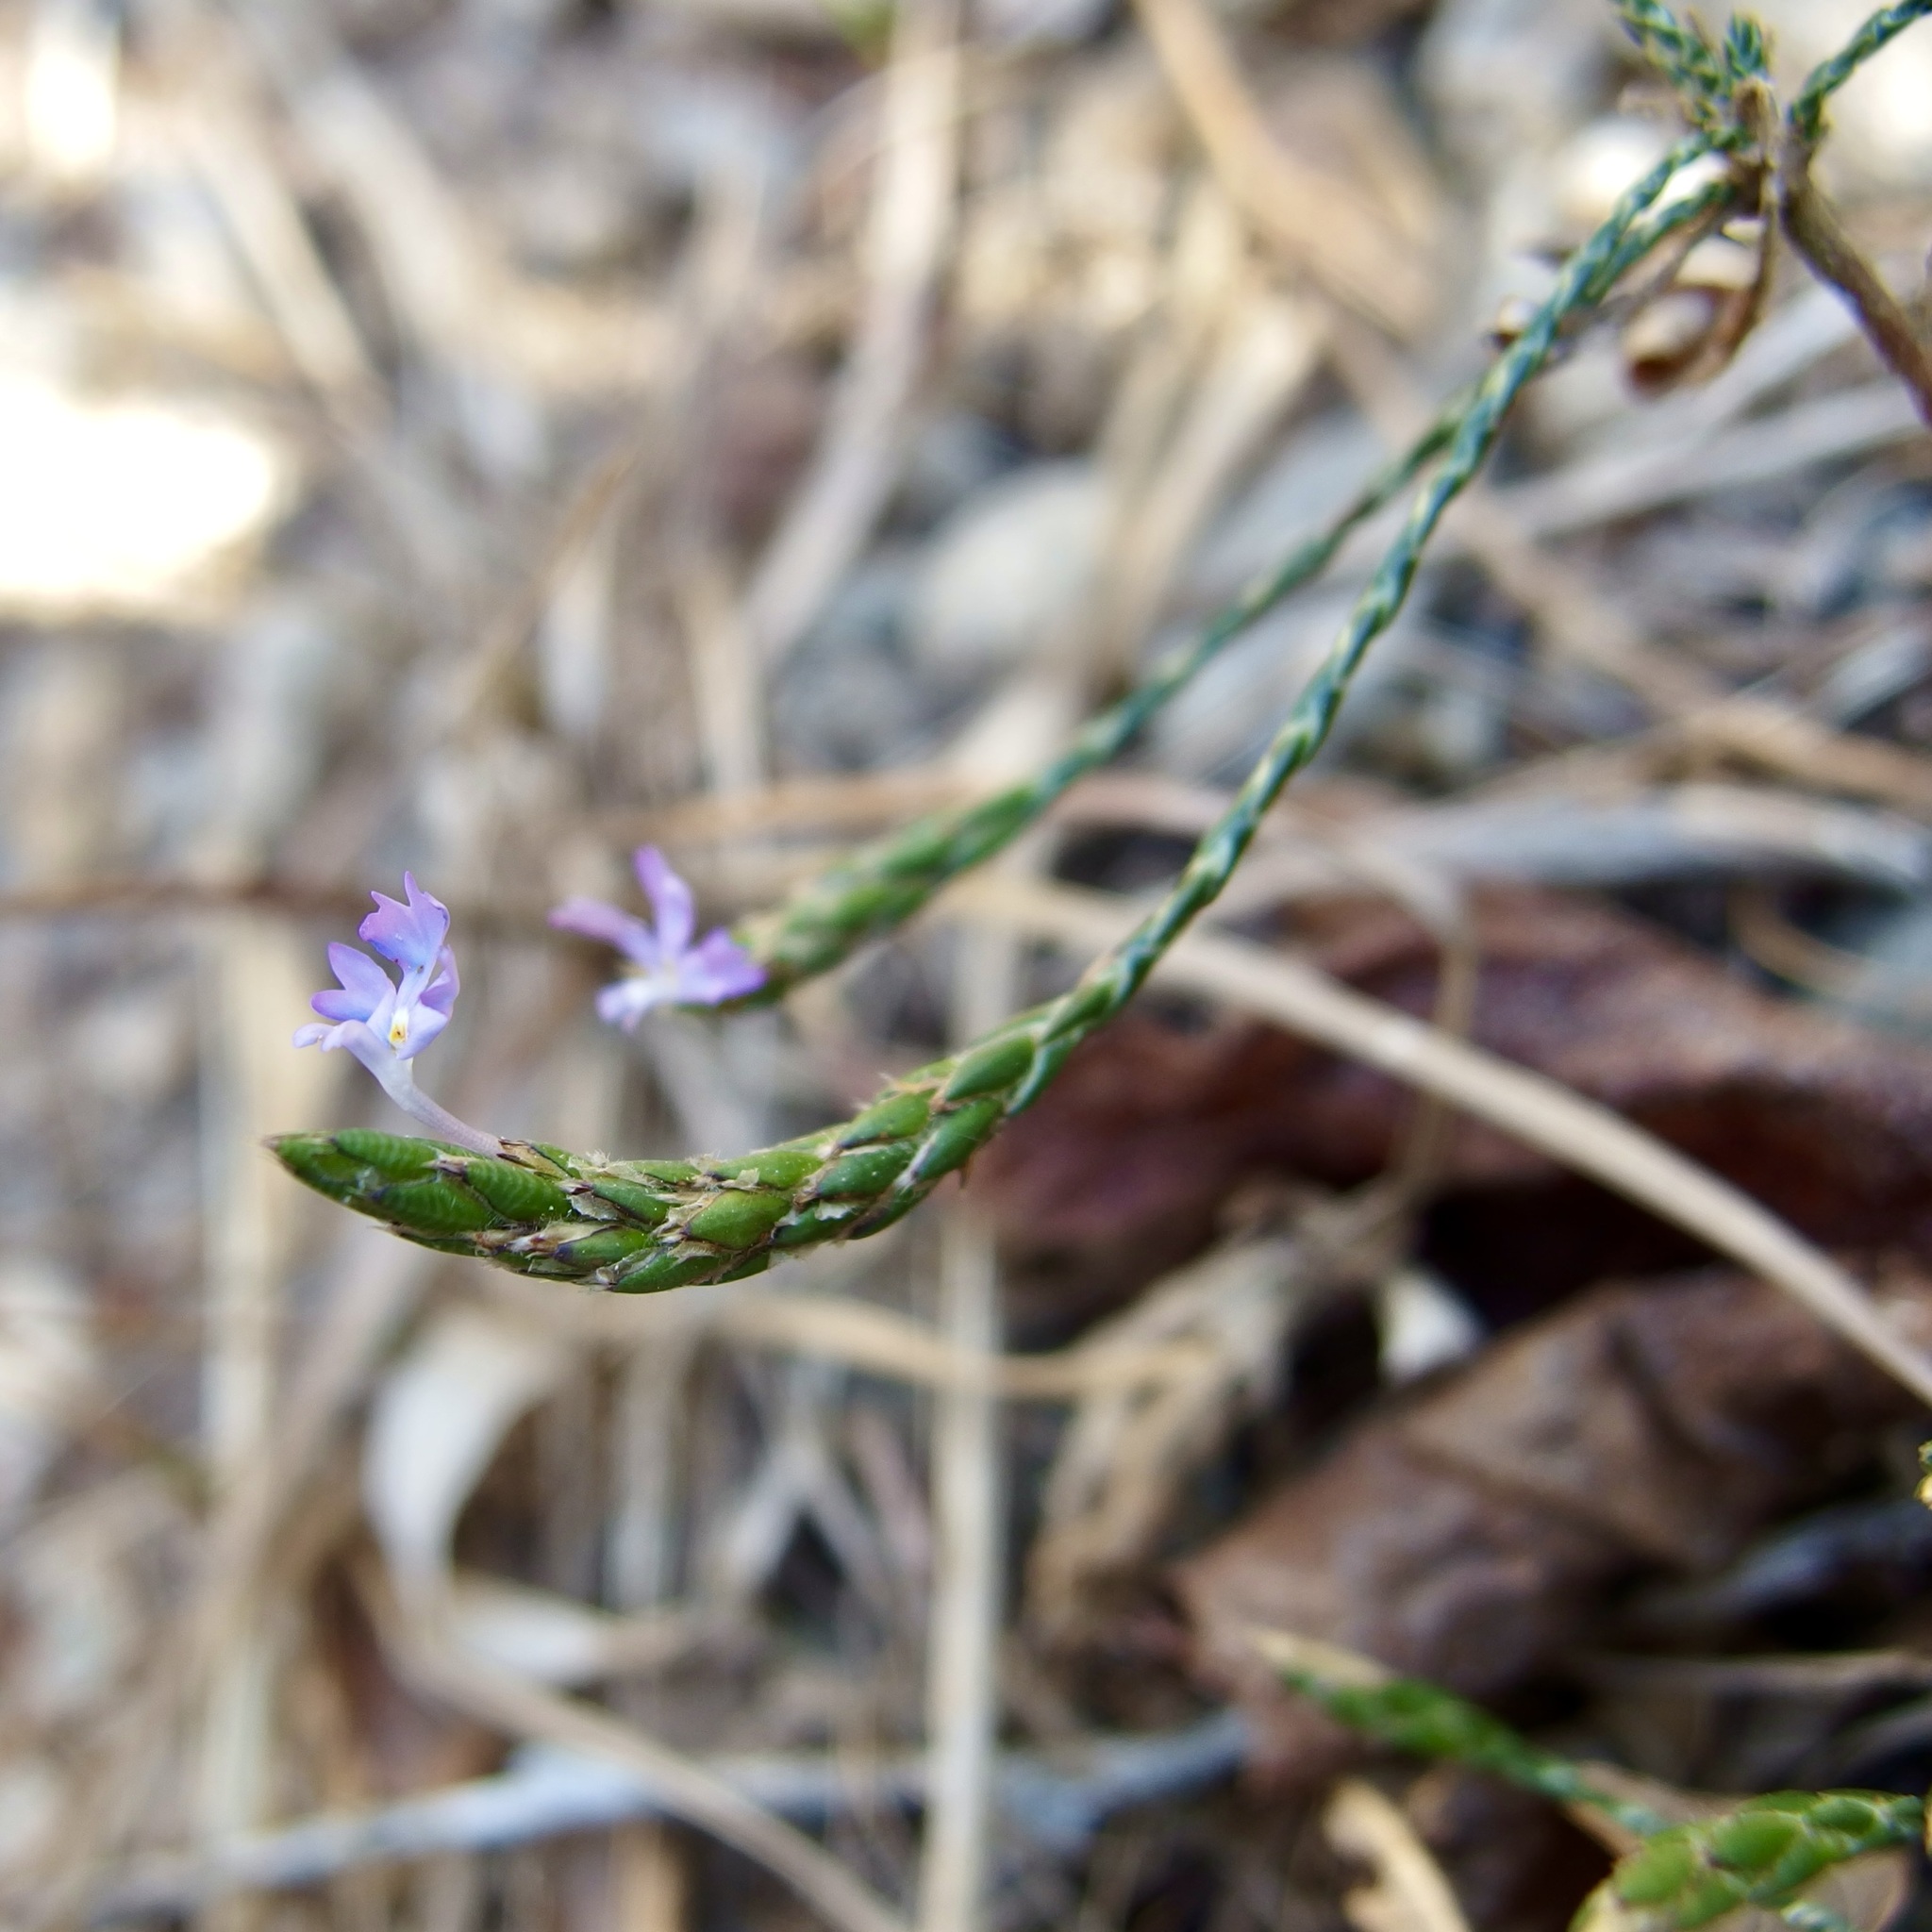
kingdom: Plantae
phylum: Tracheophyta
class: Magnoliopsida
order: Lamiales
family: Acanthaceae
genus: Elytraria
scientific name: Elytraria imbricata
